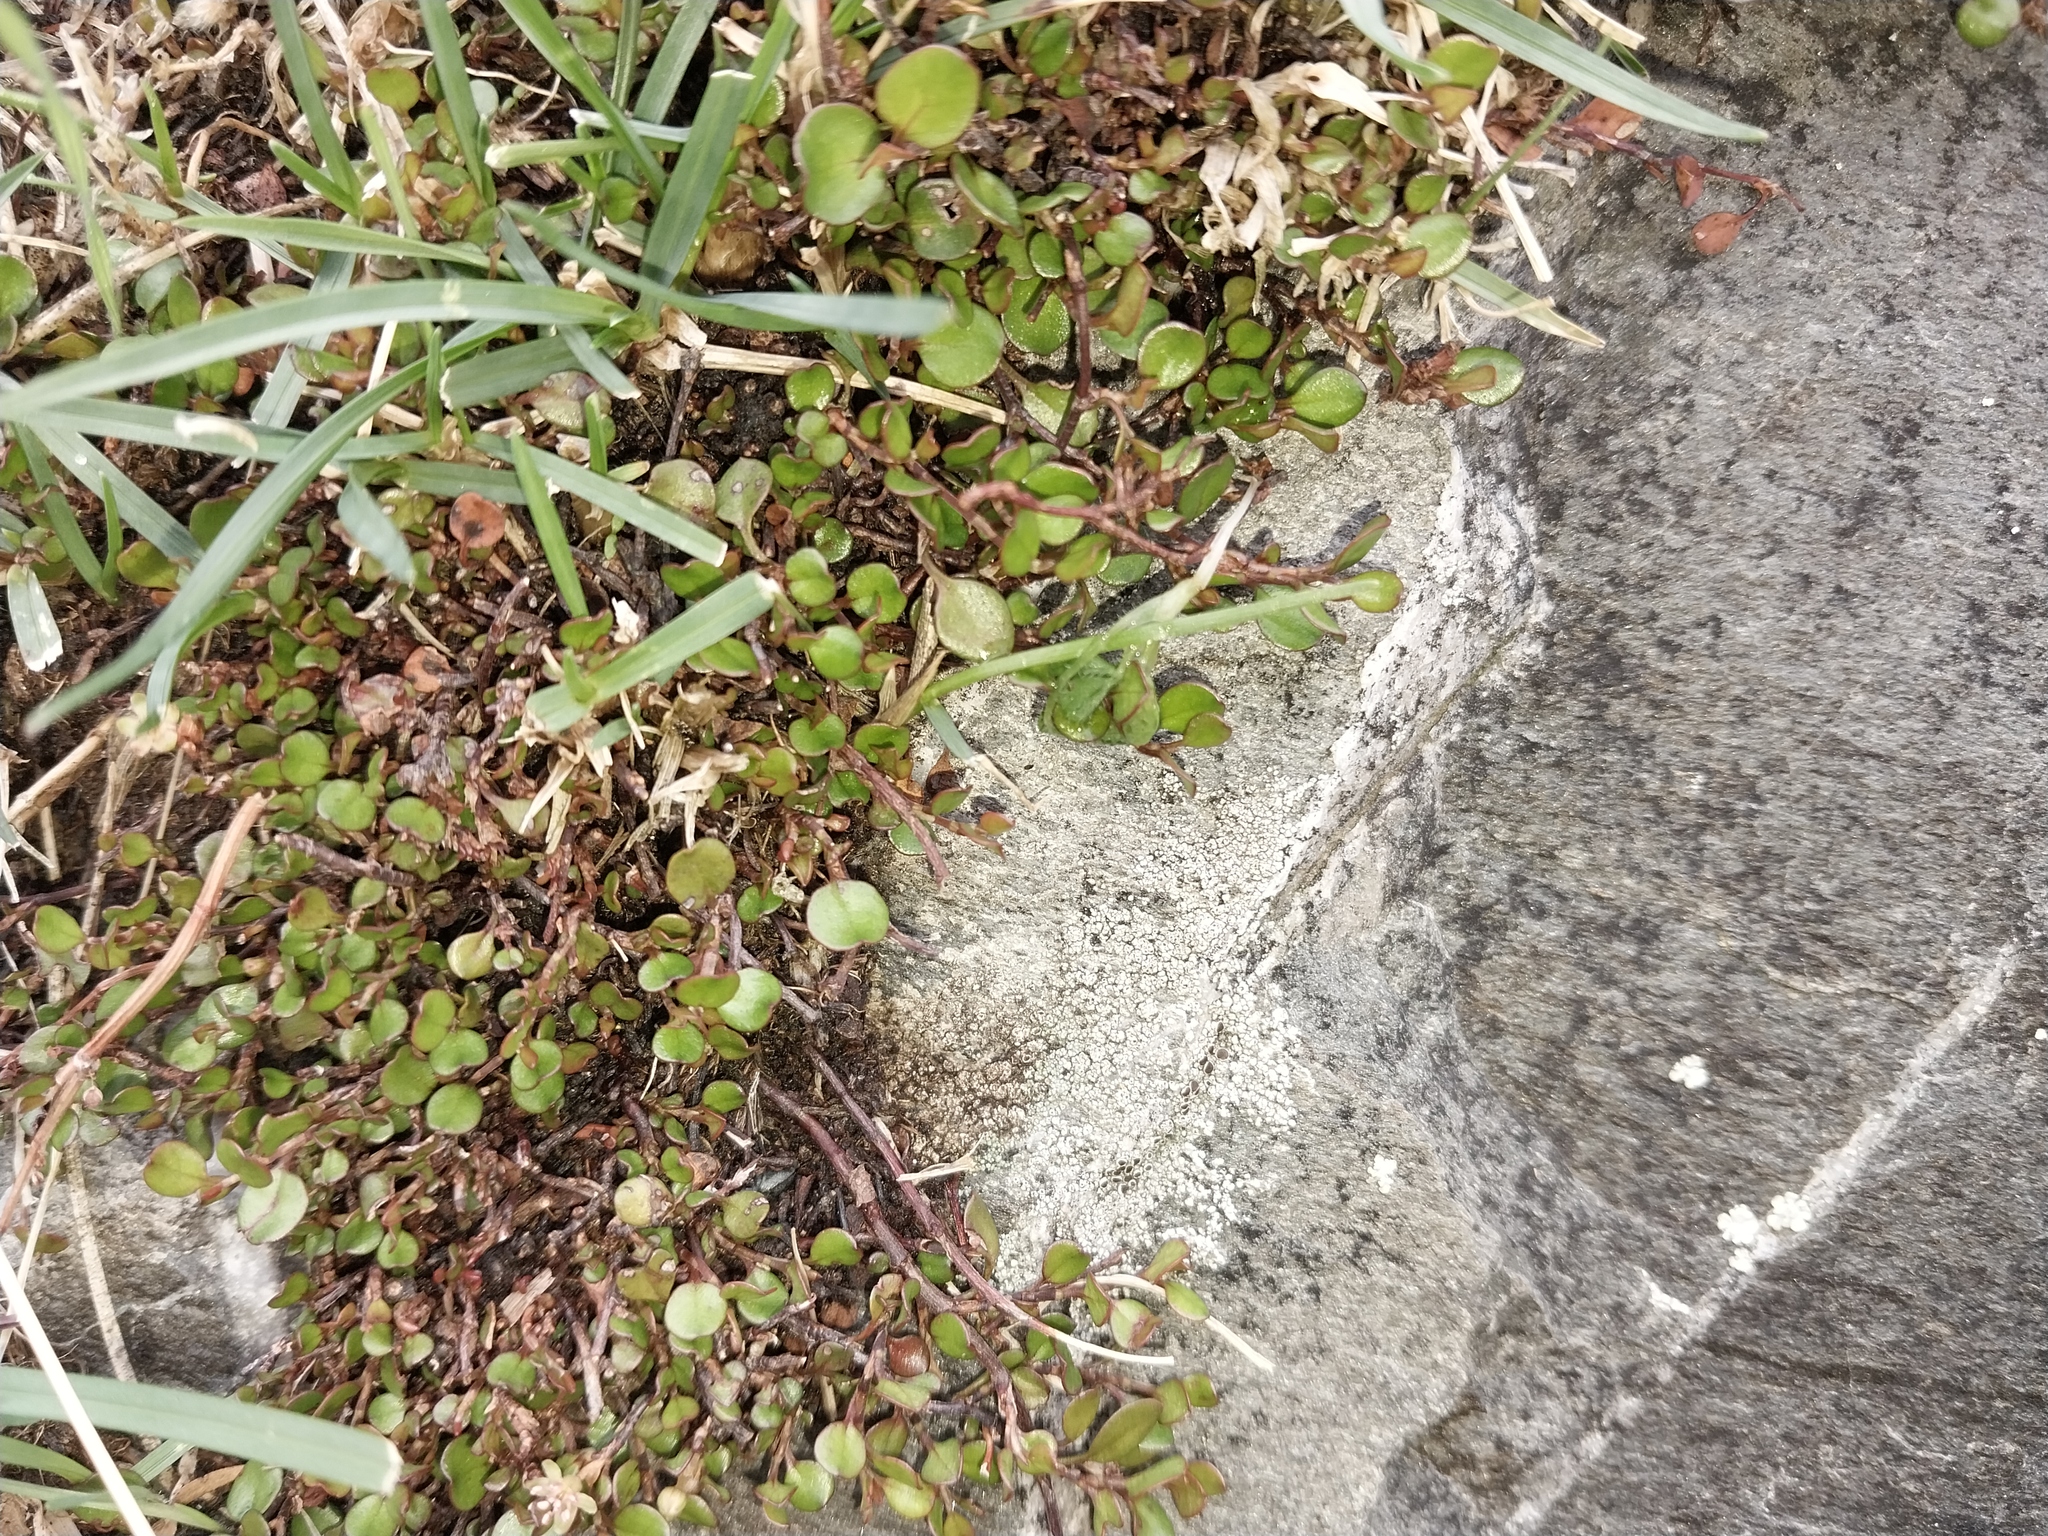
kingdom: Plantae
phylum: Tracheophyta
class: Magnoliopsida
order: Caryophyllales
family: Polygonaceae
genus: Muehlenbeckia
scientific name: Muehlenbeckia axillaris
